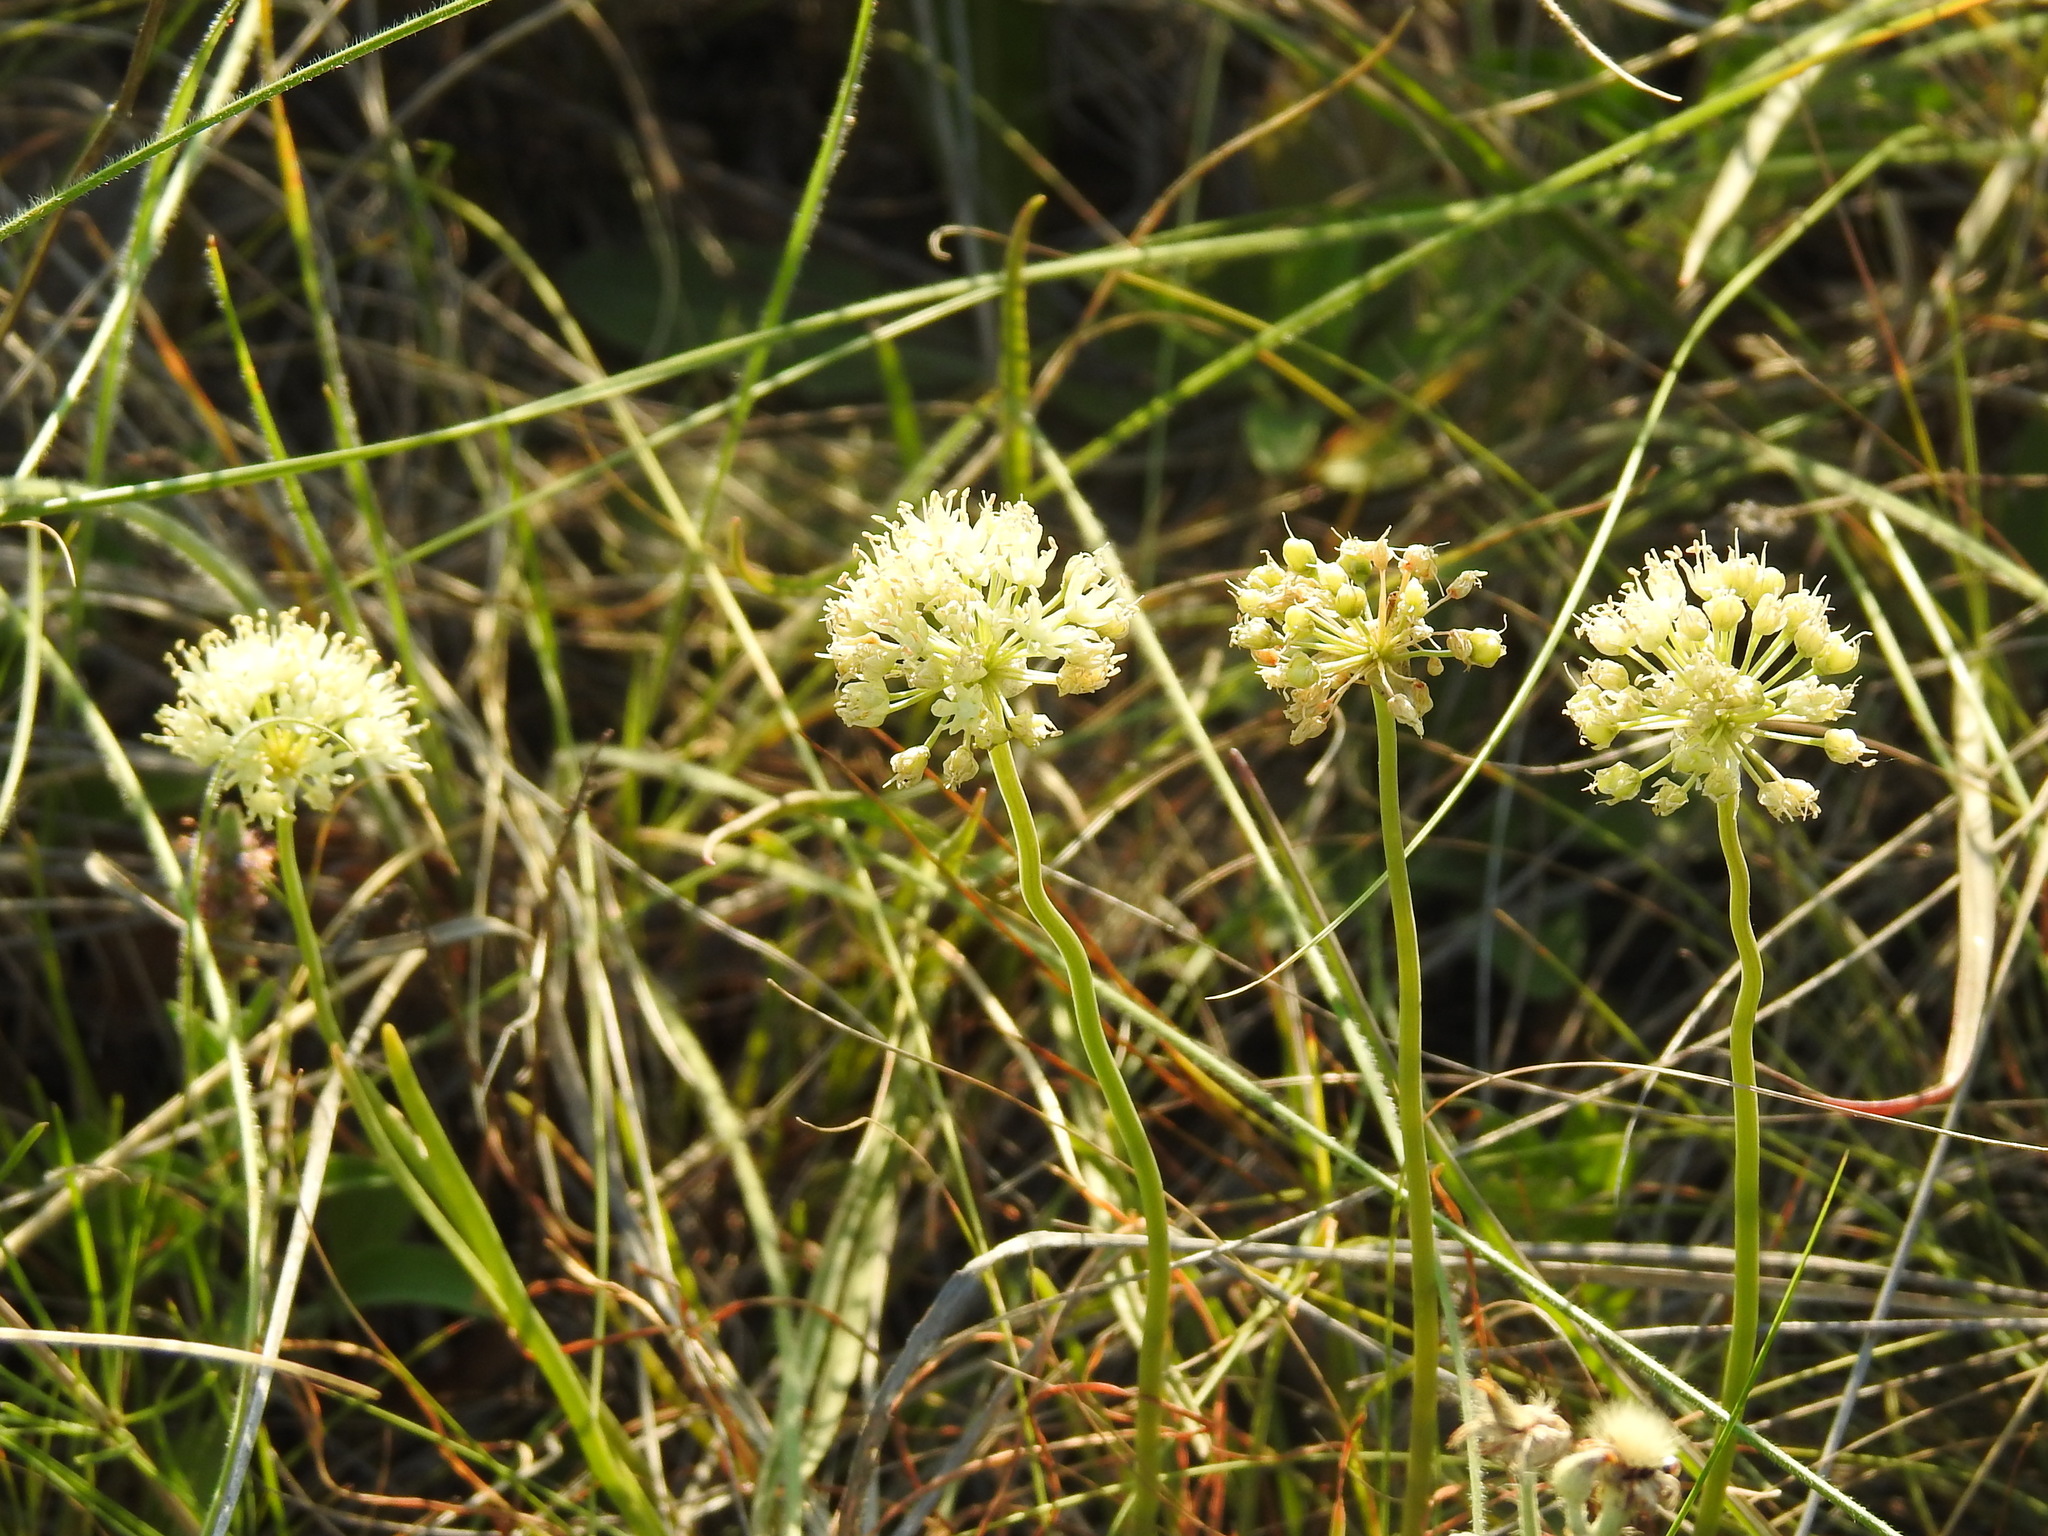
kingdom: Plantae
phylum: Tracheophyta
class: Liliopsida
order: Asparagales
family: Amaryllidaceae
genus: Allium
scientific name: Allium flavescens
